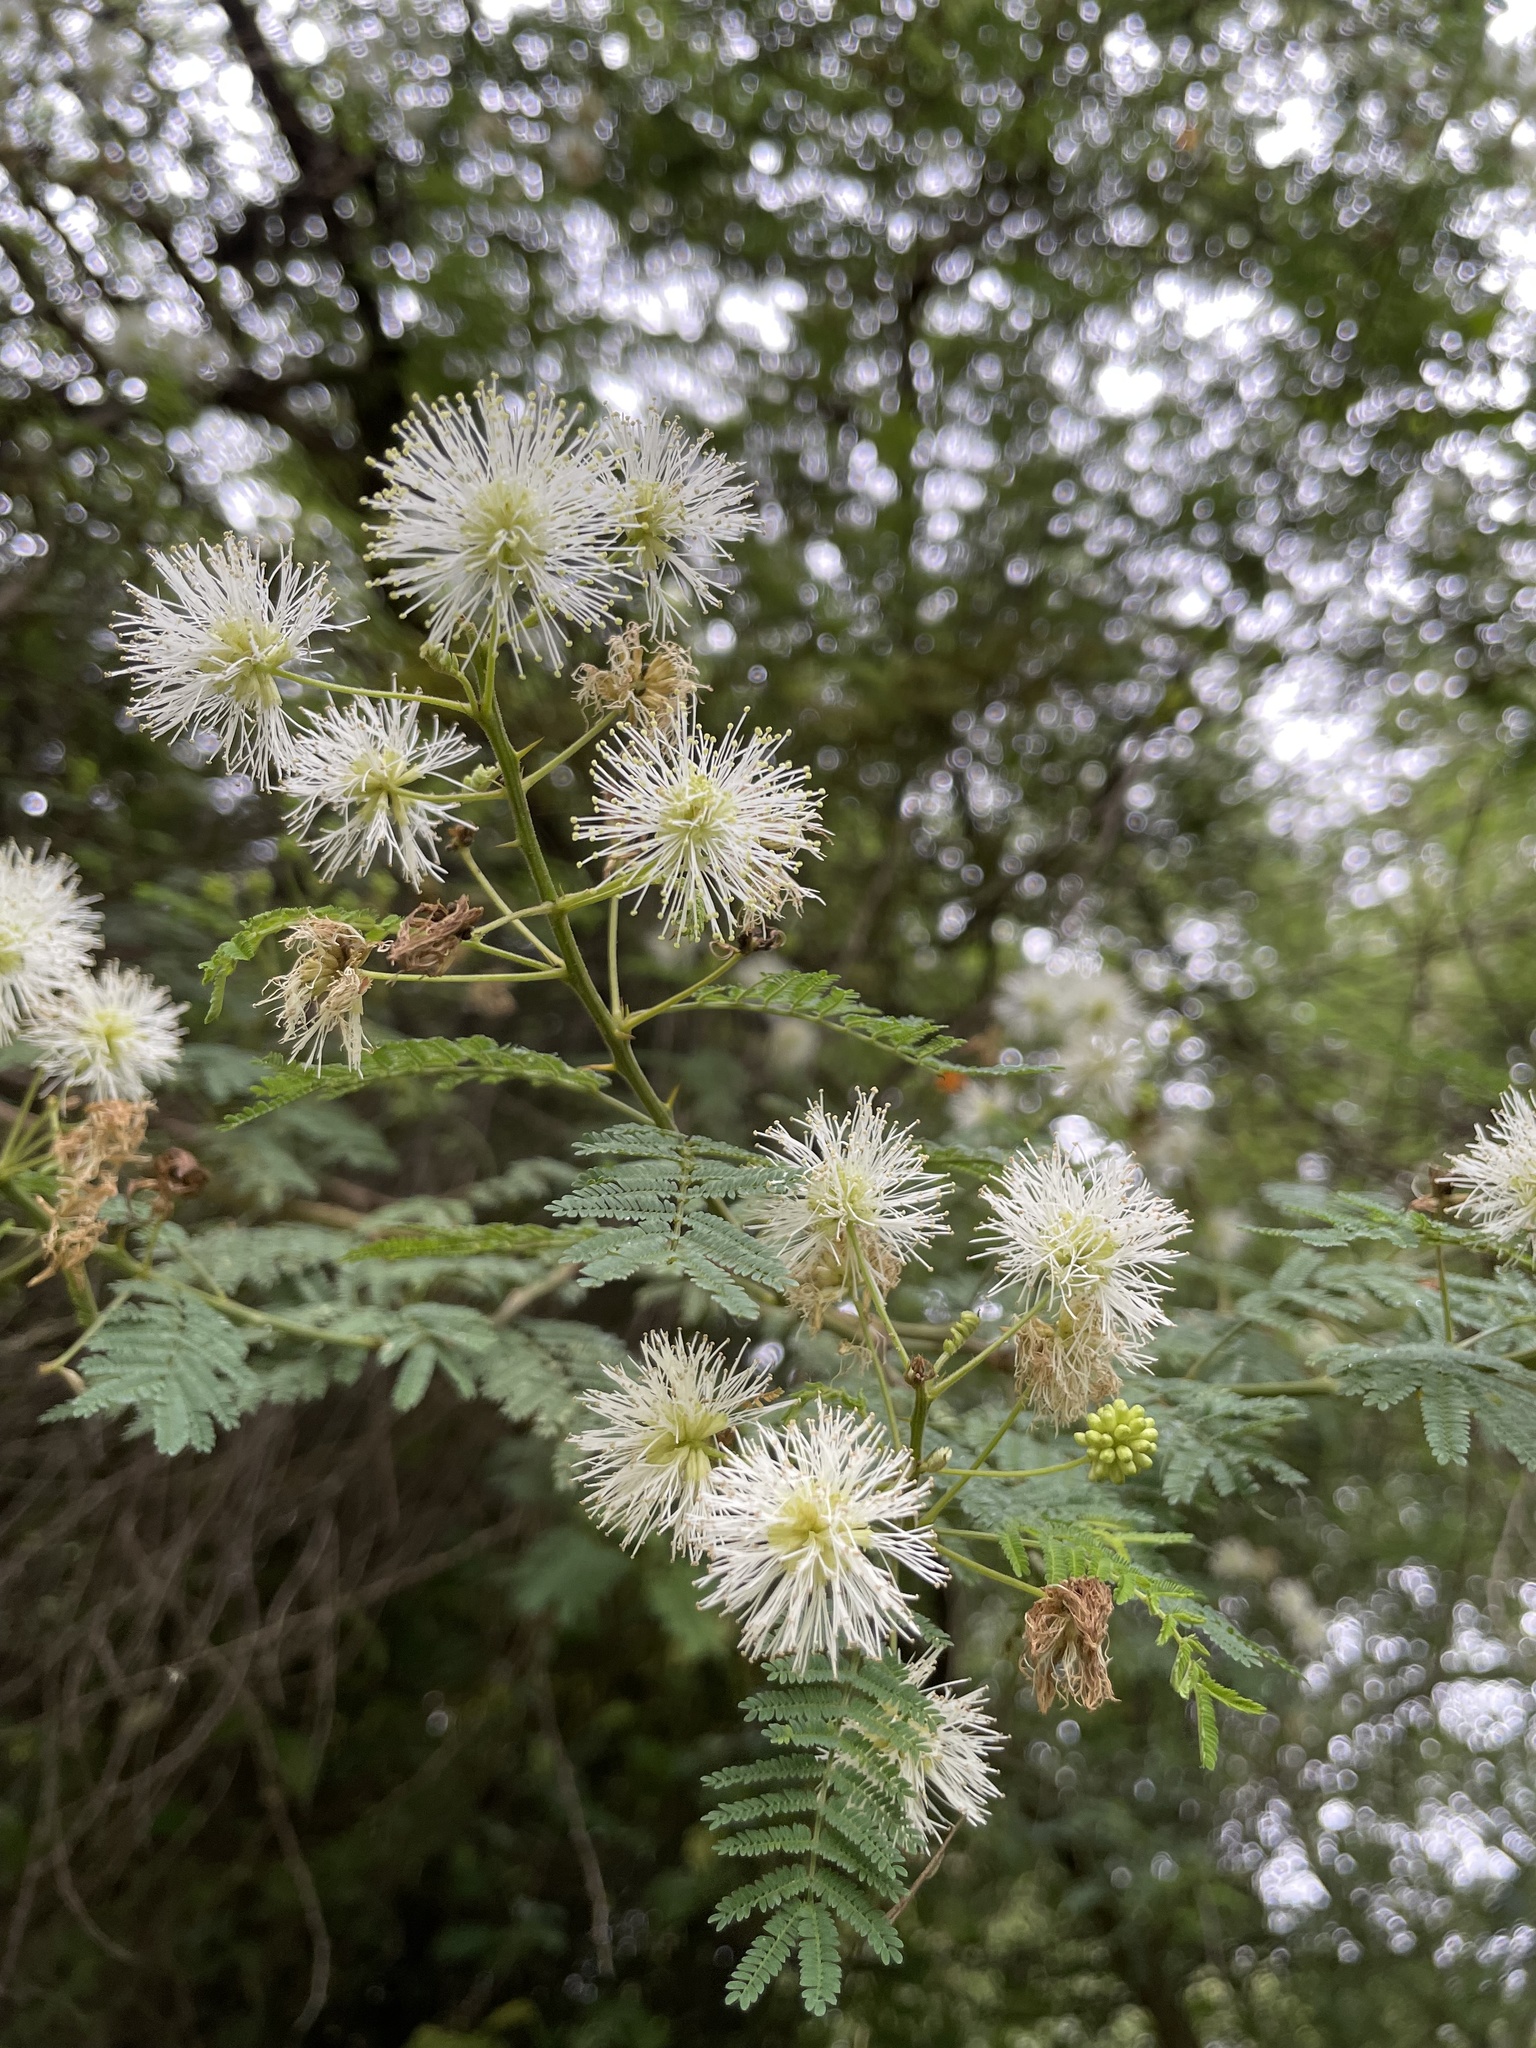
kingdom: Plantae
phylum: Tracheophyta
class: Magnoliopsida
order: Fabales
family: Fabaceae
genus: Mimosa
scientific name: Mimosa quitensis
